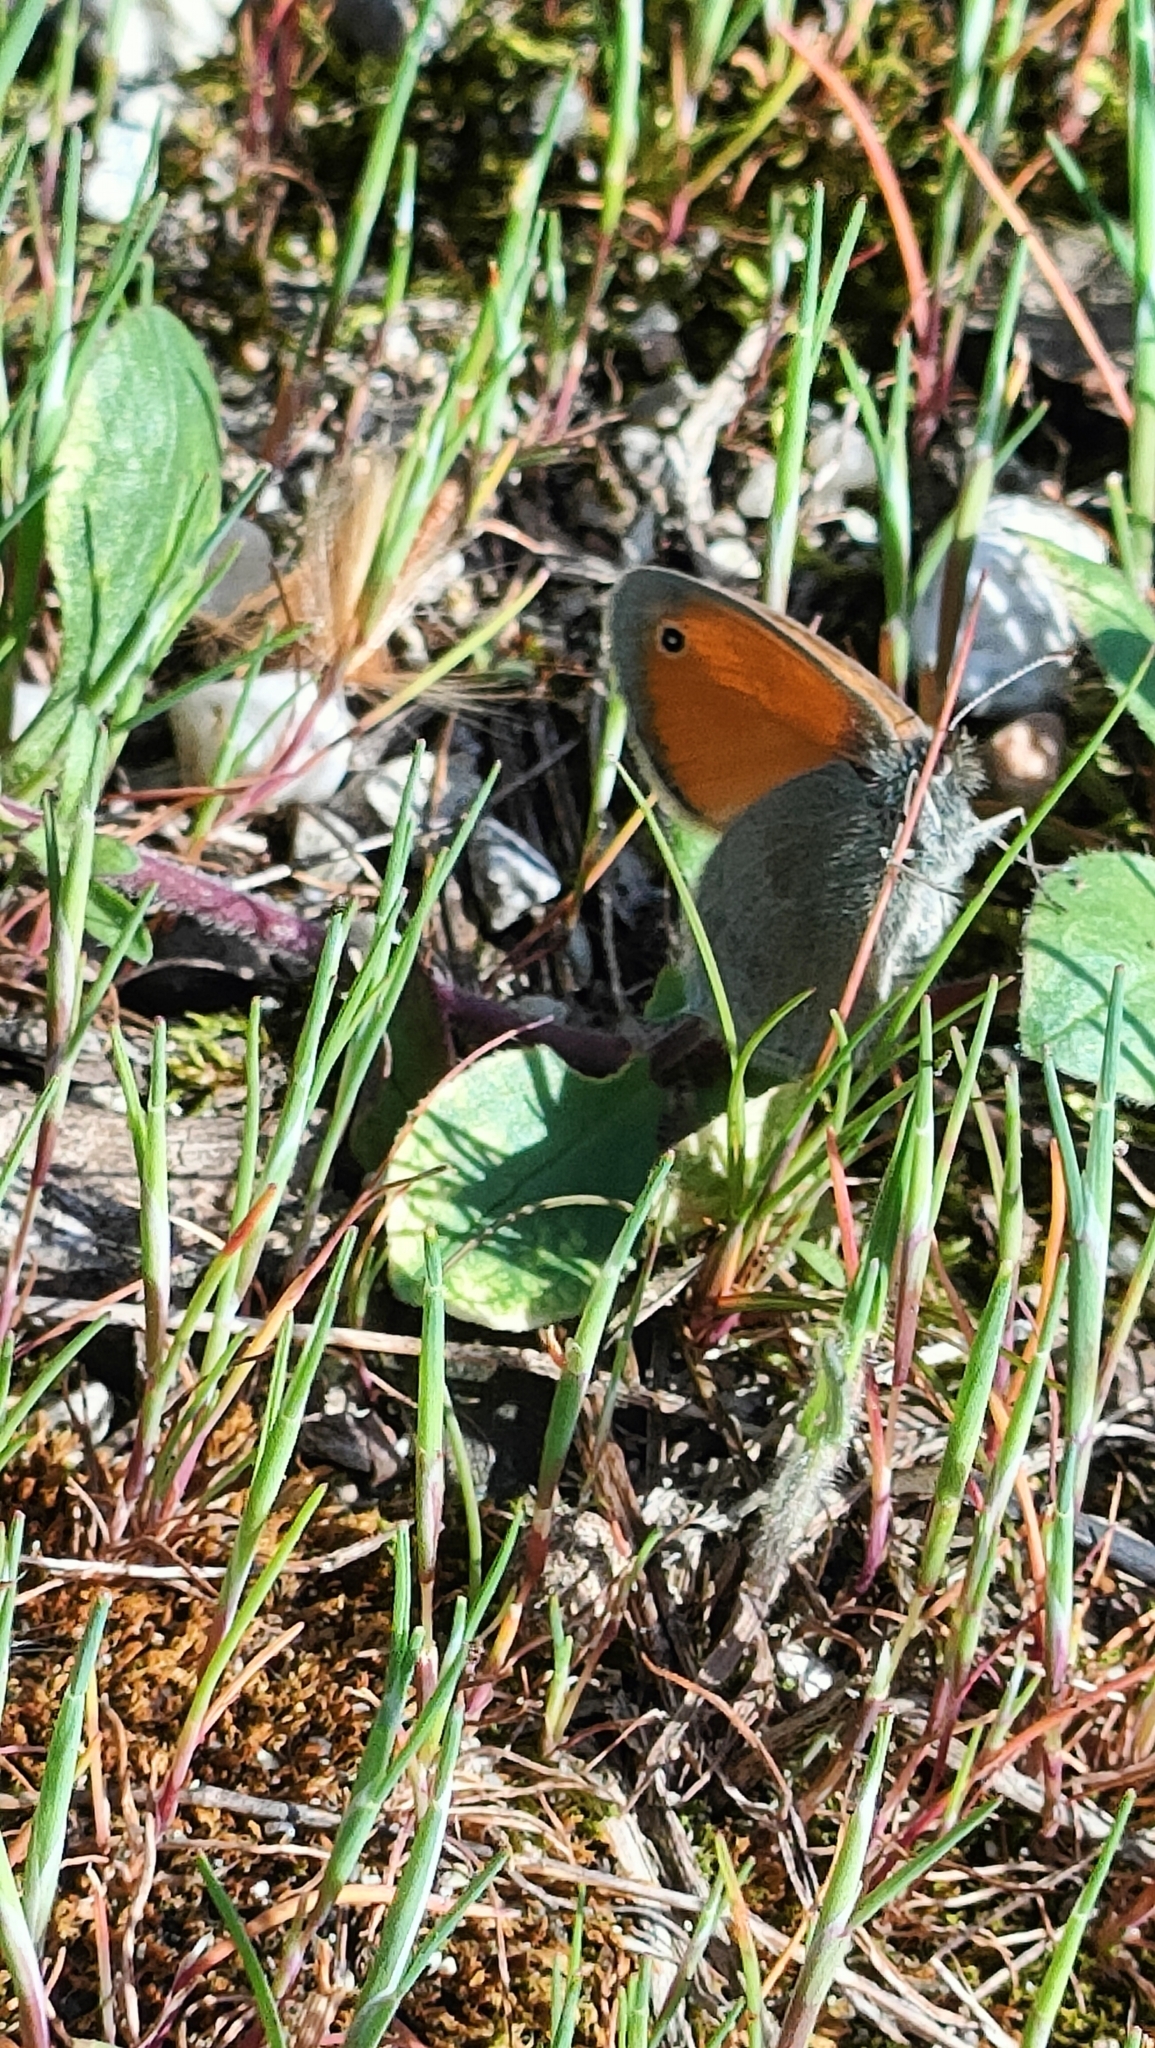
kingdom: Animalia
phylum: Arthropoda
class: Insecta
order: Lepidoptera
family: Nymphalidae
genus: Coenonympha
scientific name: Coenonympha pamphilus
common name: Small heath
